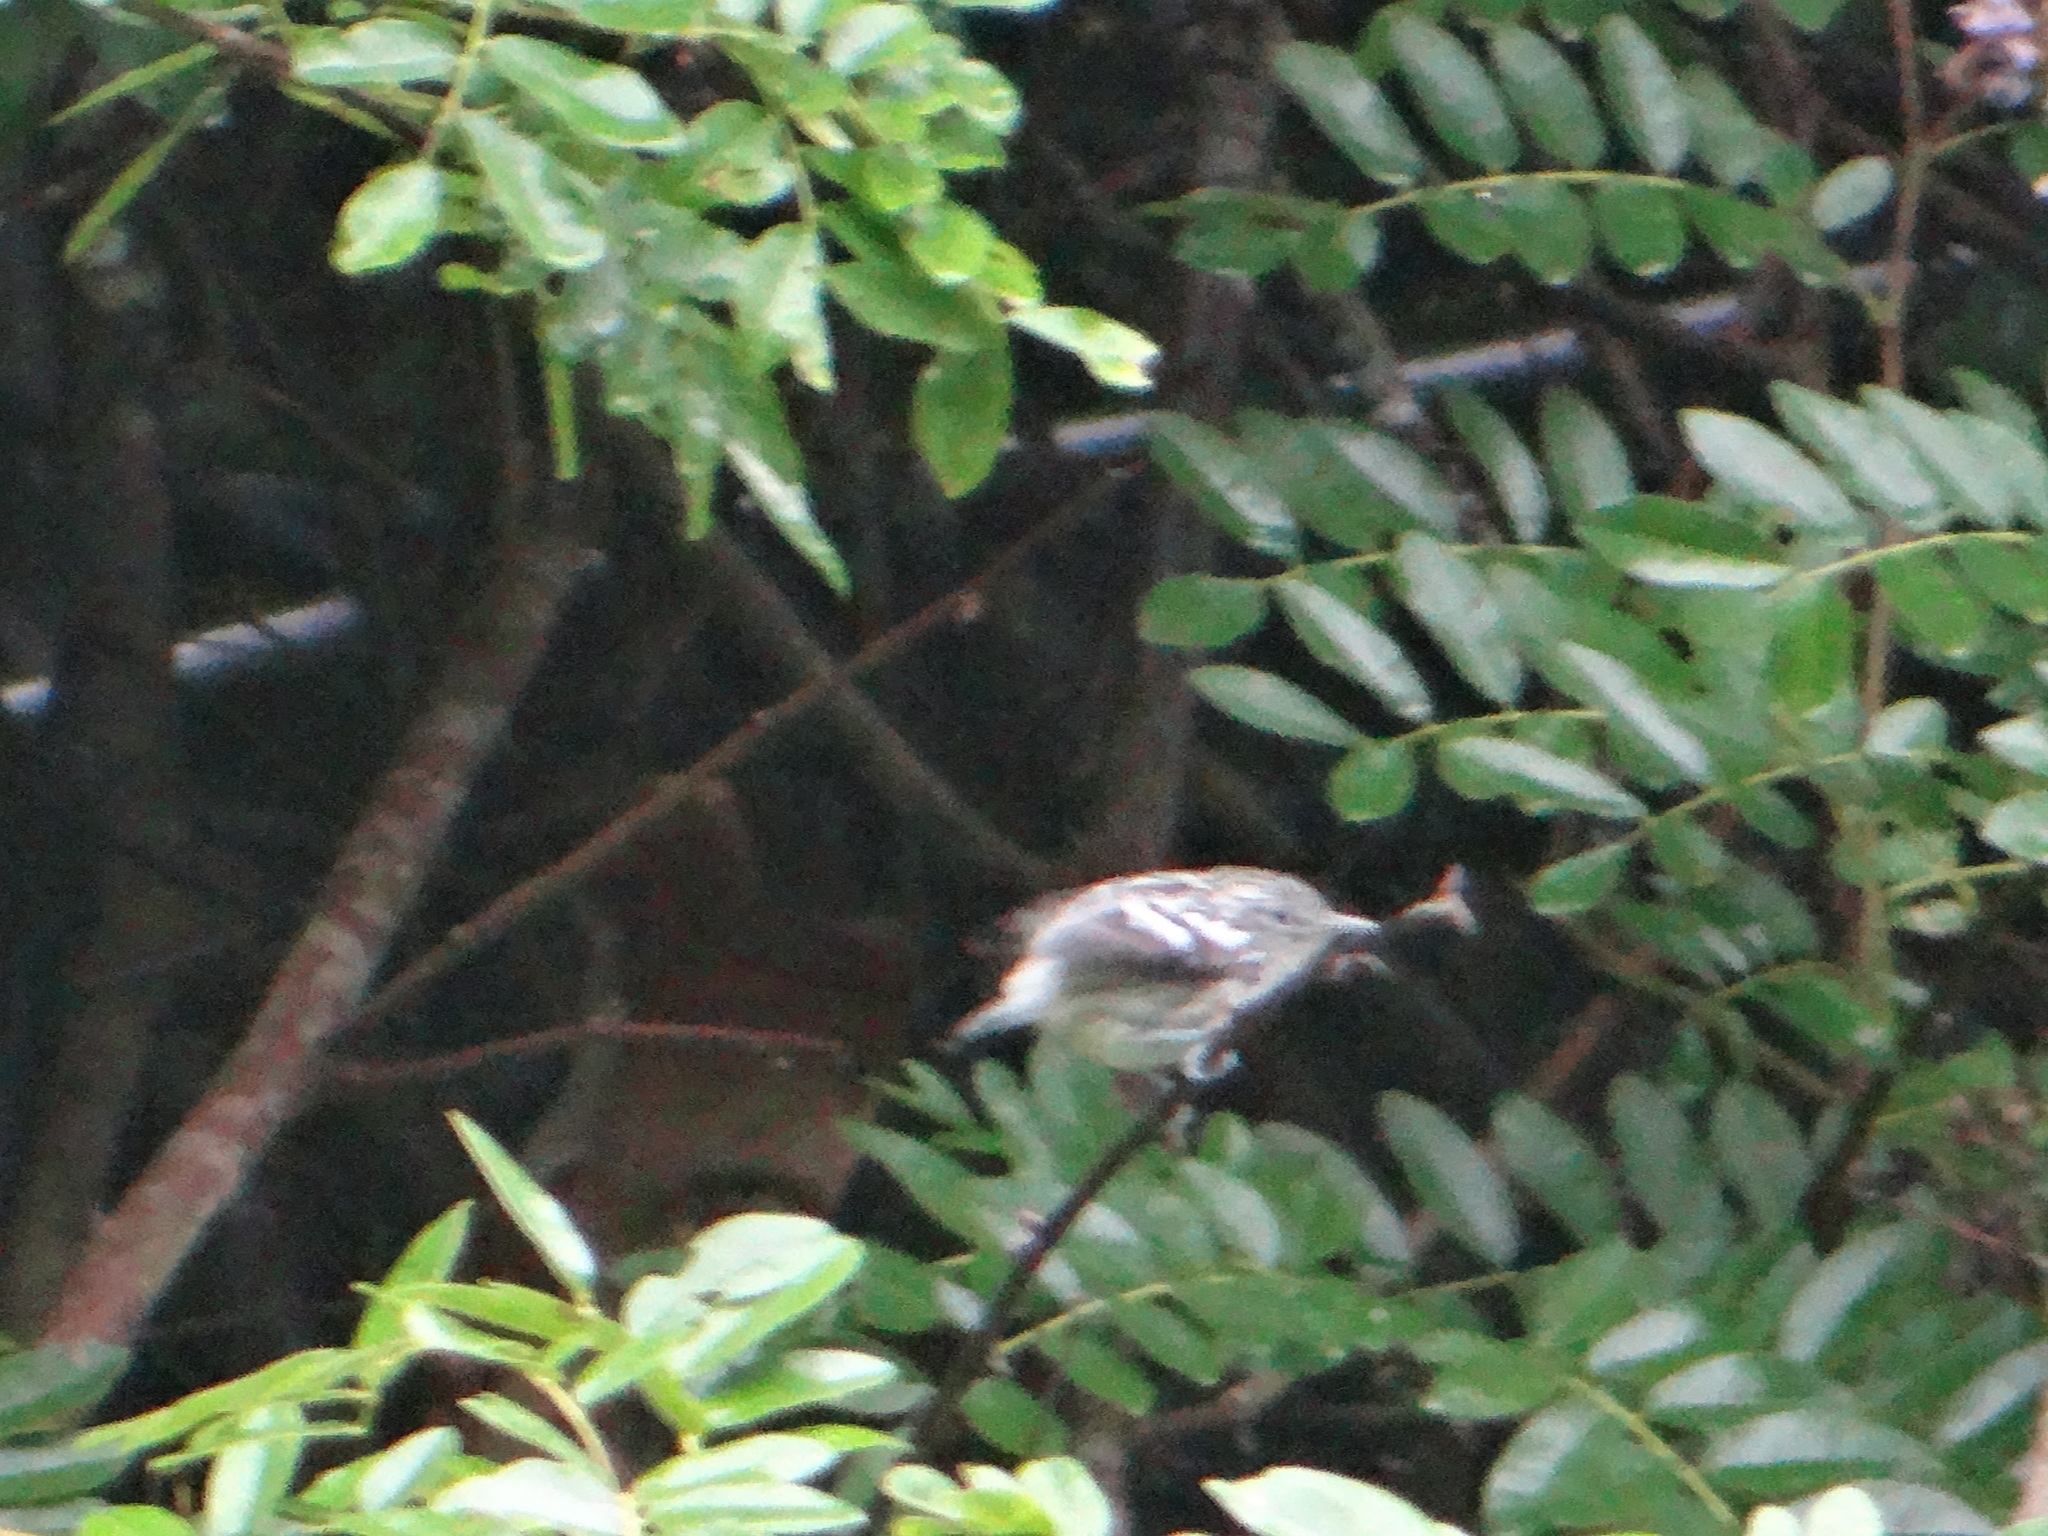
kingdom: Animalia
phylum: Chordata
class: Aves
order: Passeriformes
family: Thamnophilidae
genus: Myrmotherula
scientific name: Myrmotherula multostriata
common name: Amazonian streaked antwren
